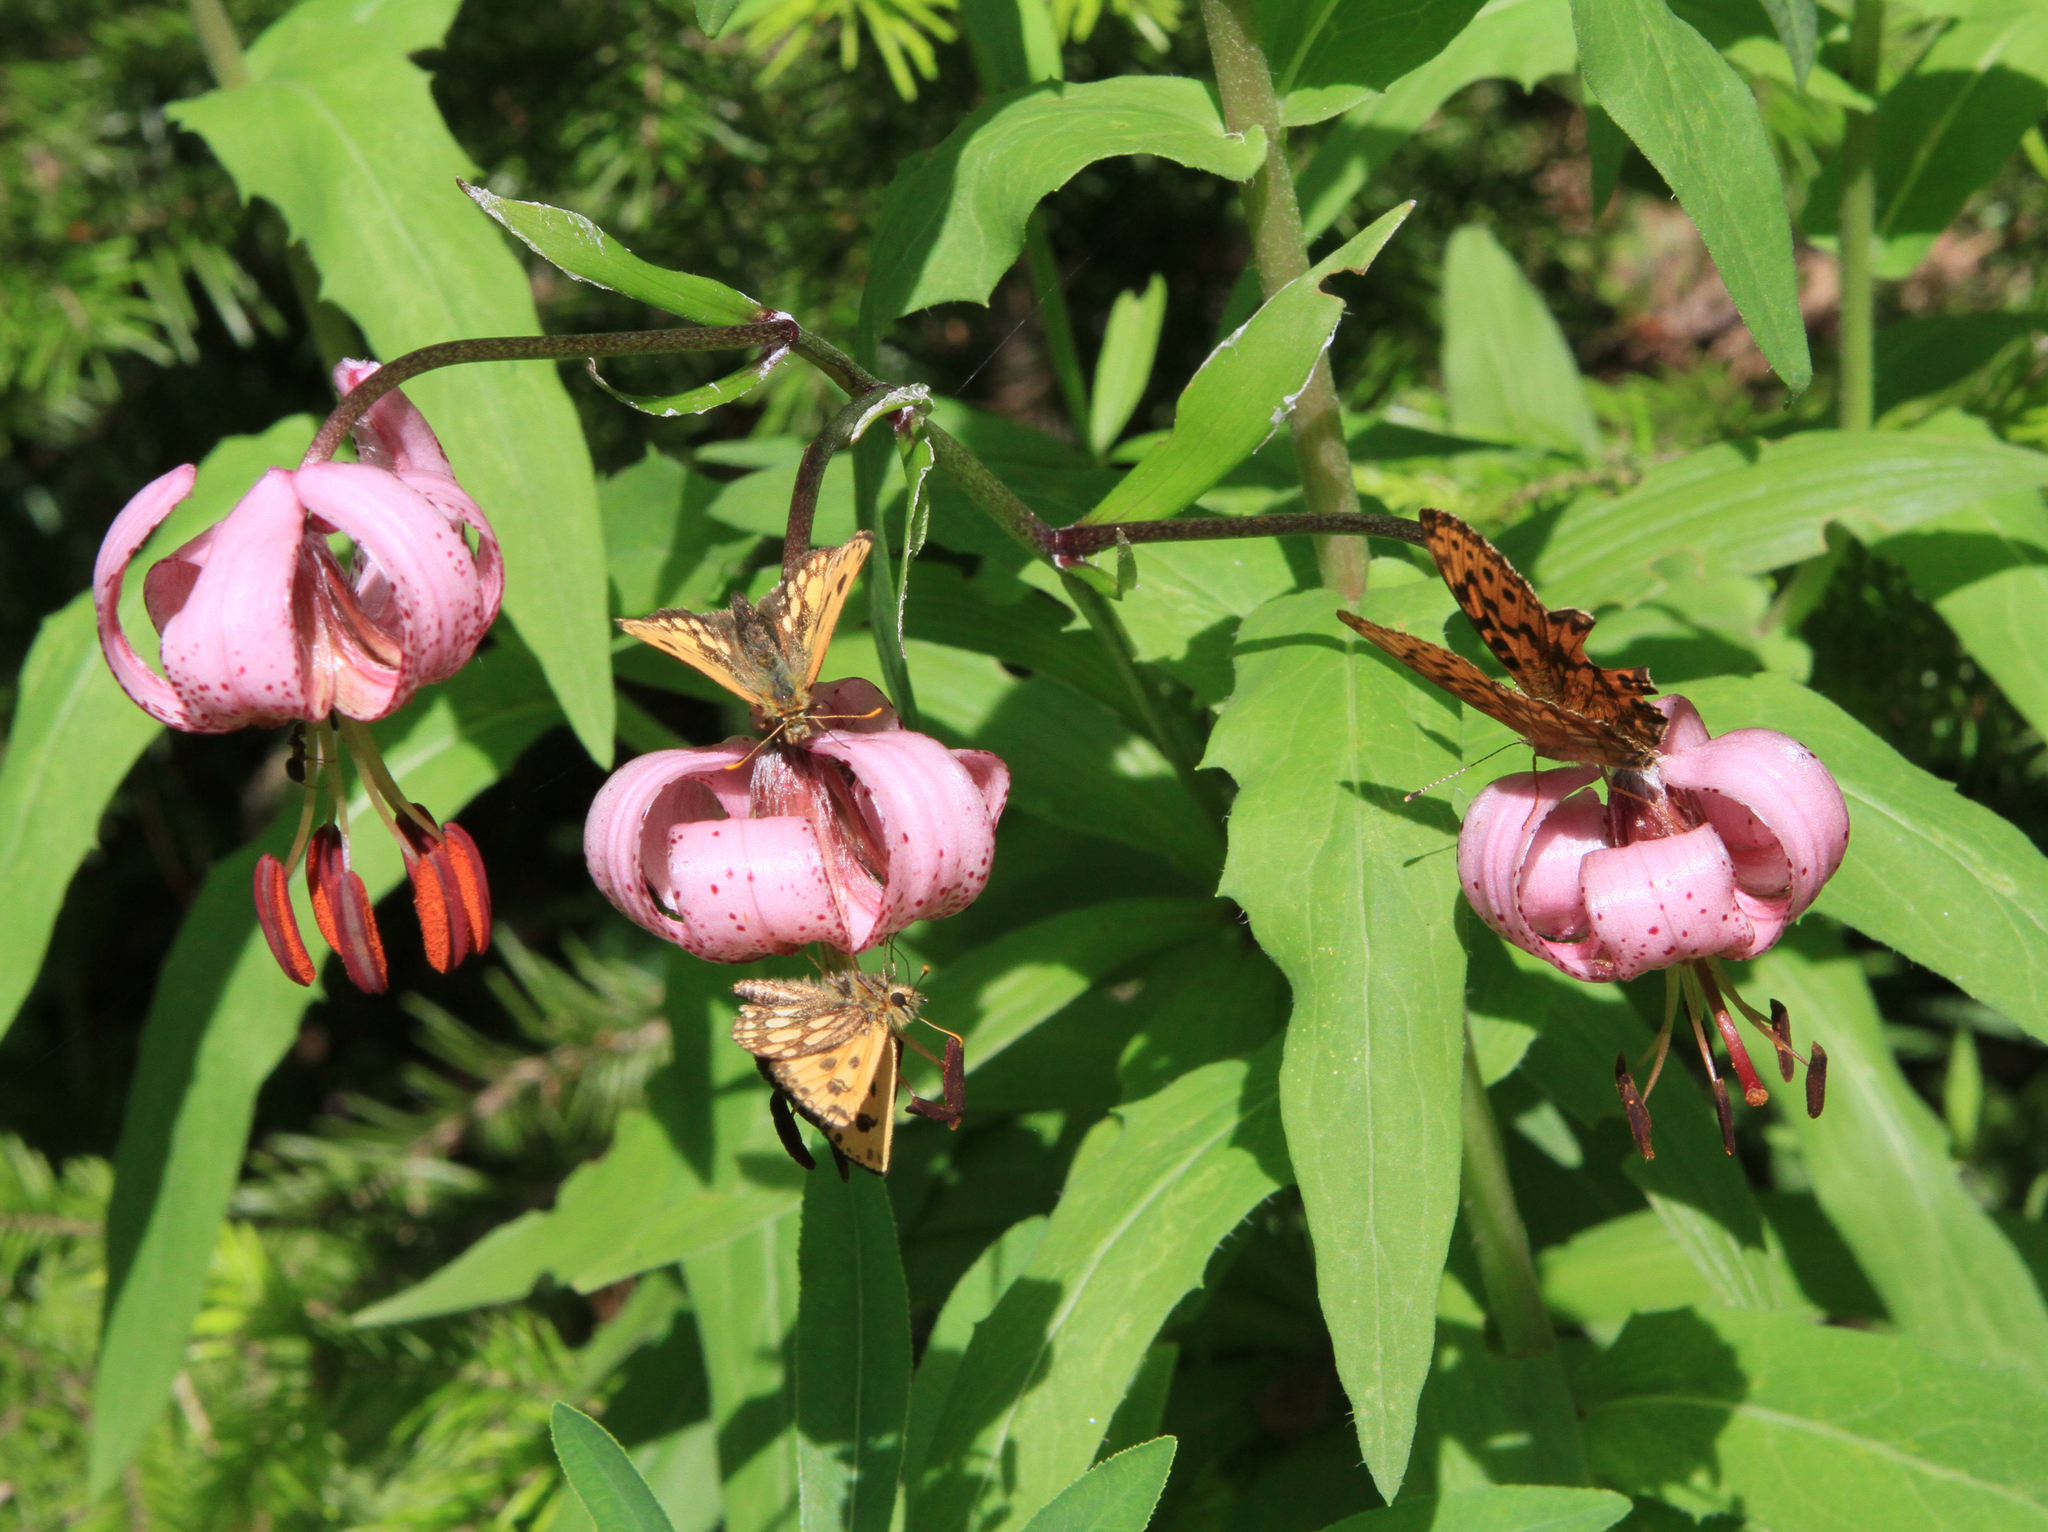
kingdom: Animalia
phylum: Arthropoda
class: Insecta
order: Lepidoptera
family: Hesperiidae
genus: Carterocephalus
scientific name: Carterocephalus silvicola
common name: Northern chequered skipper
